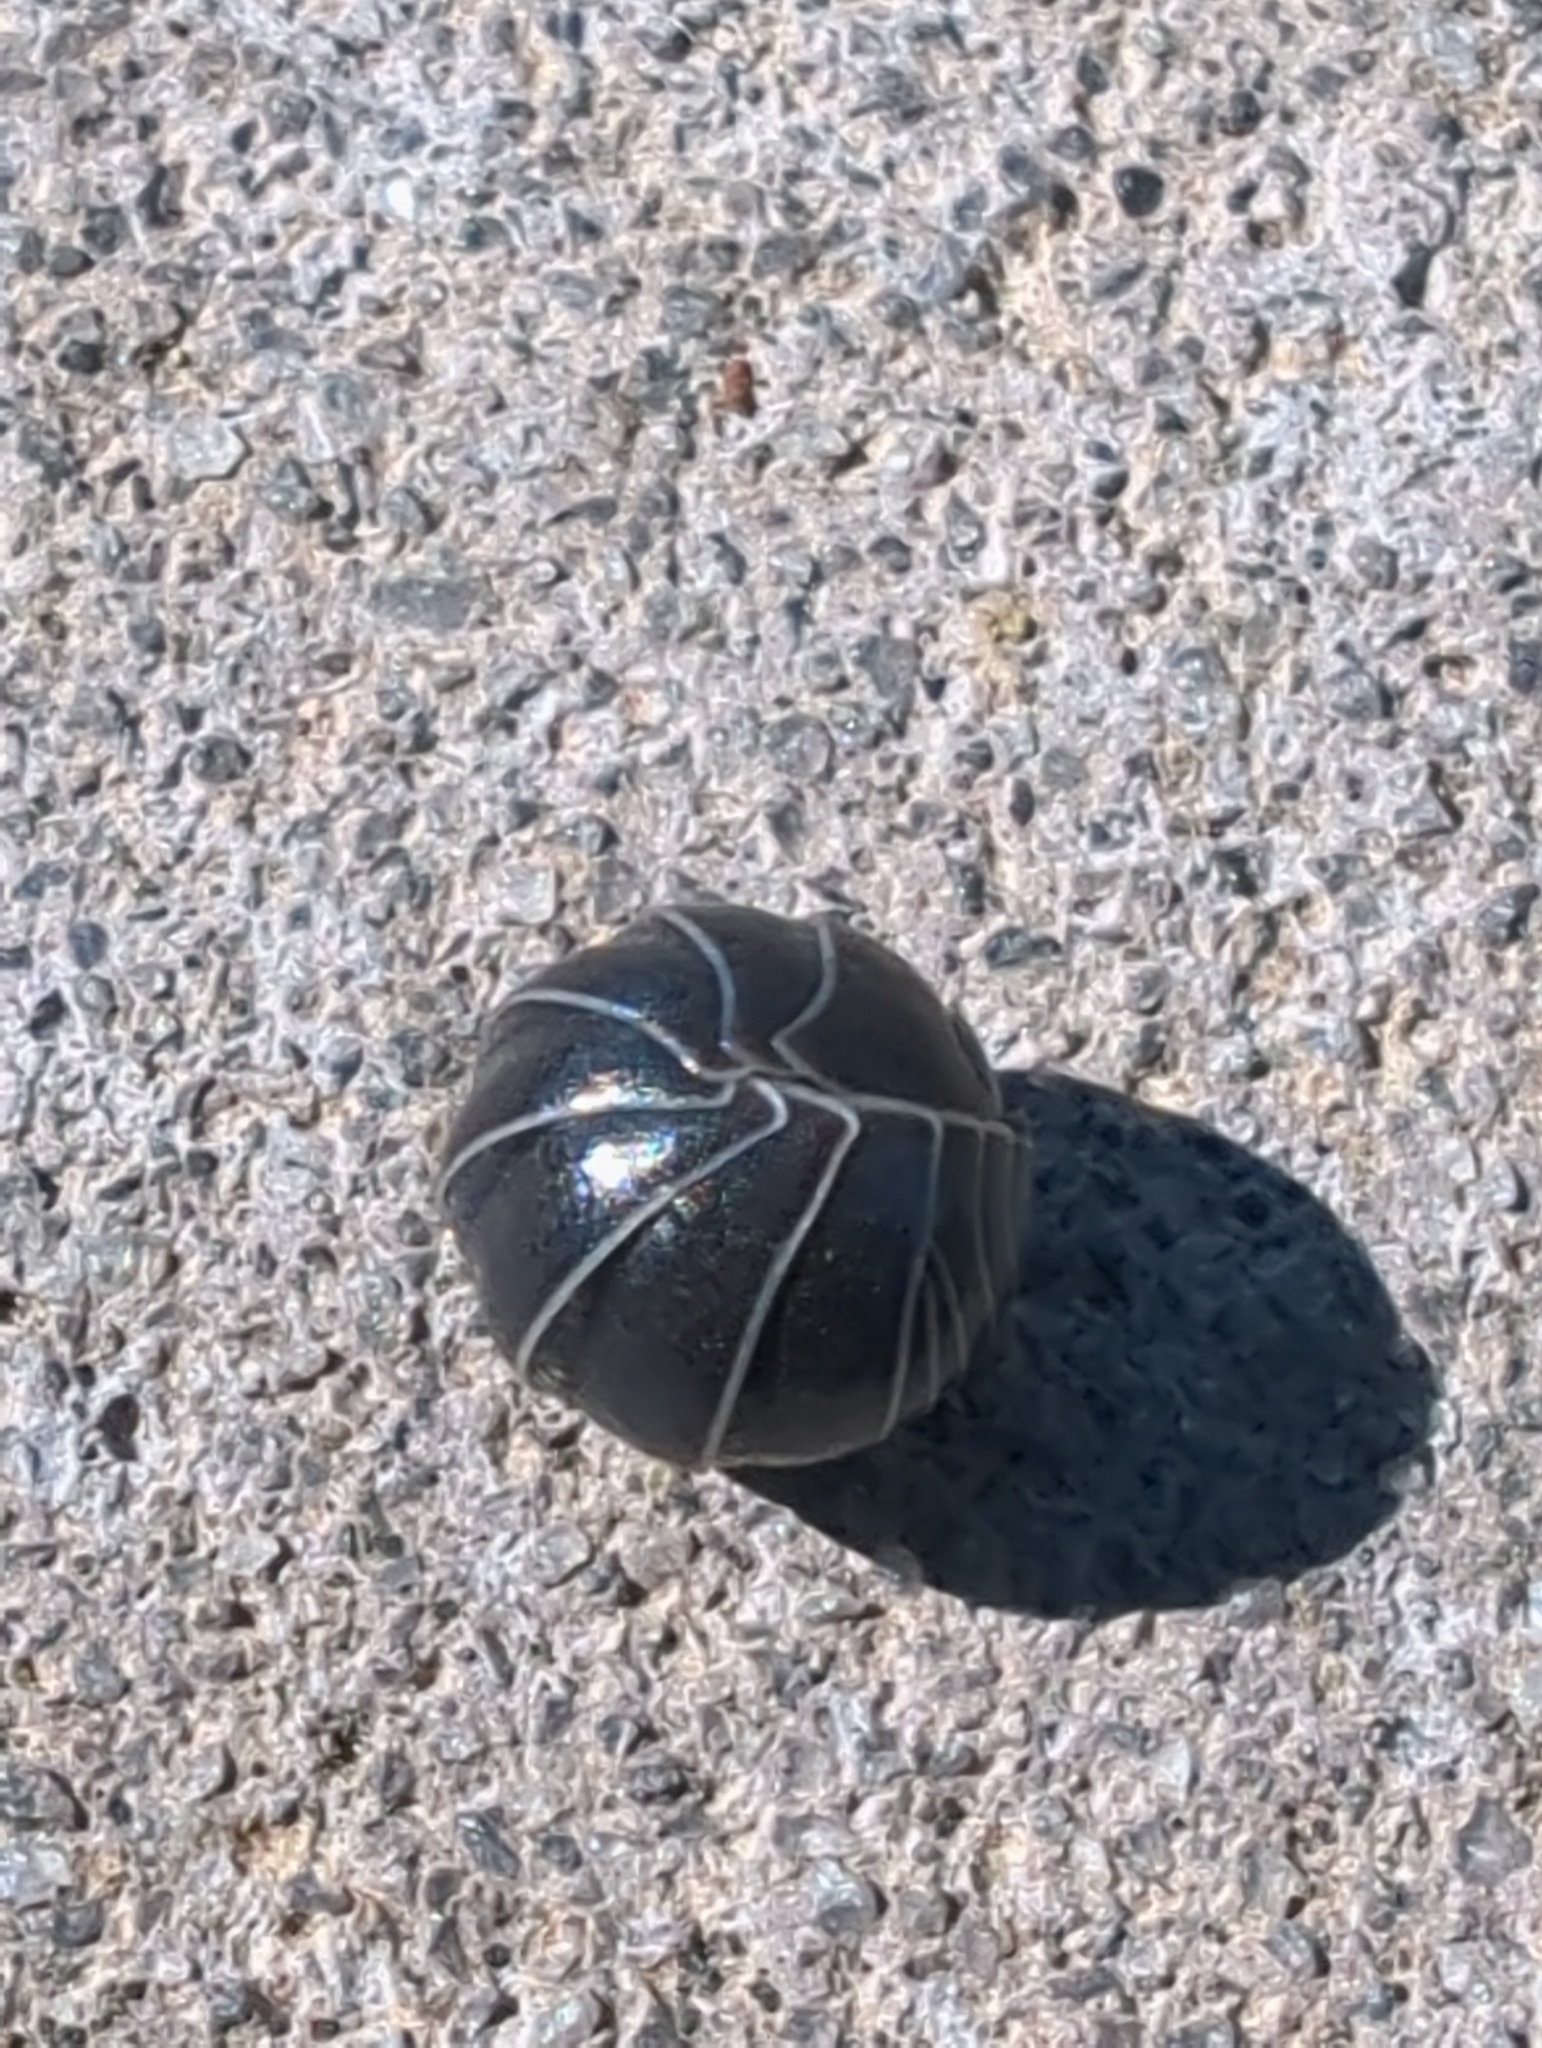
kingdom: Animalia
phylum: Arthropoda
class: Malacostraca
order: Isopoda
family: Armadillidiidae
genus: Armadillidium
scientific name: Armadillidium vulgare
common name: Common pill woodlouse
